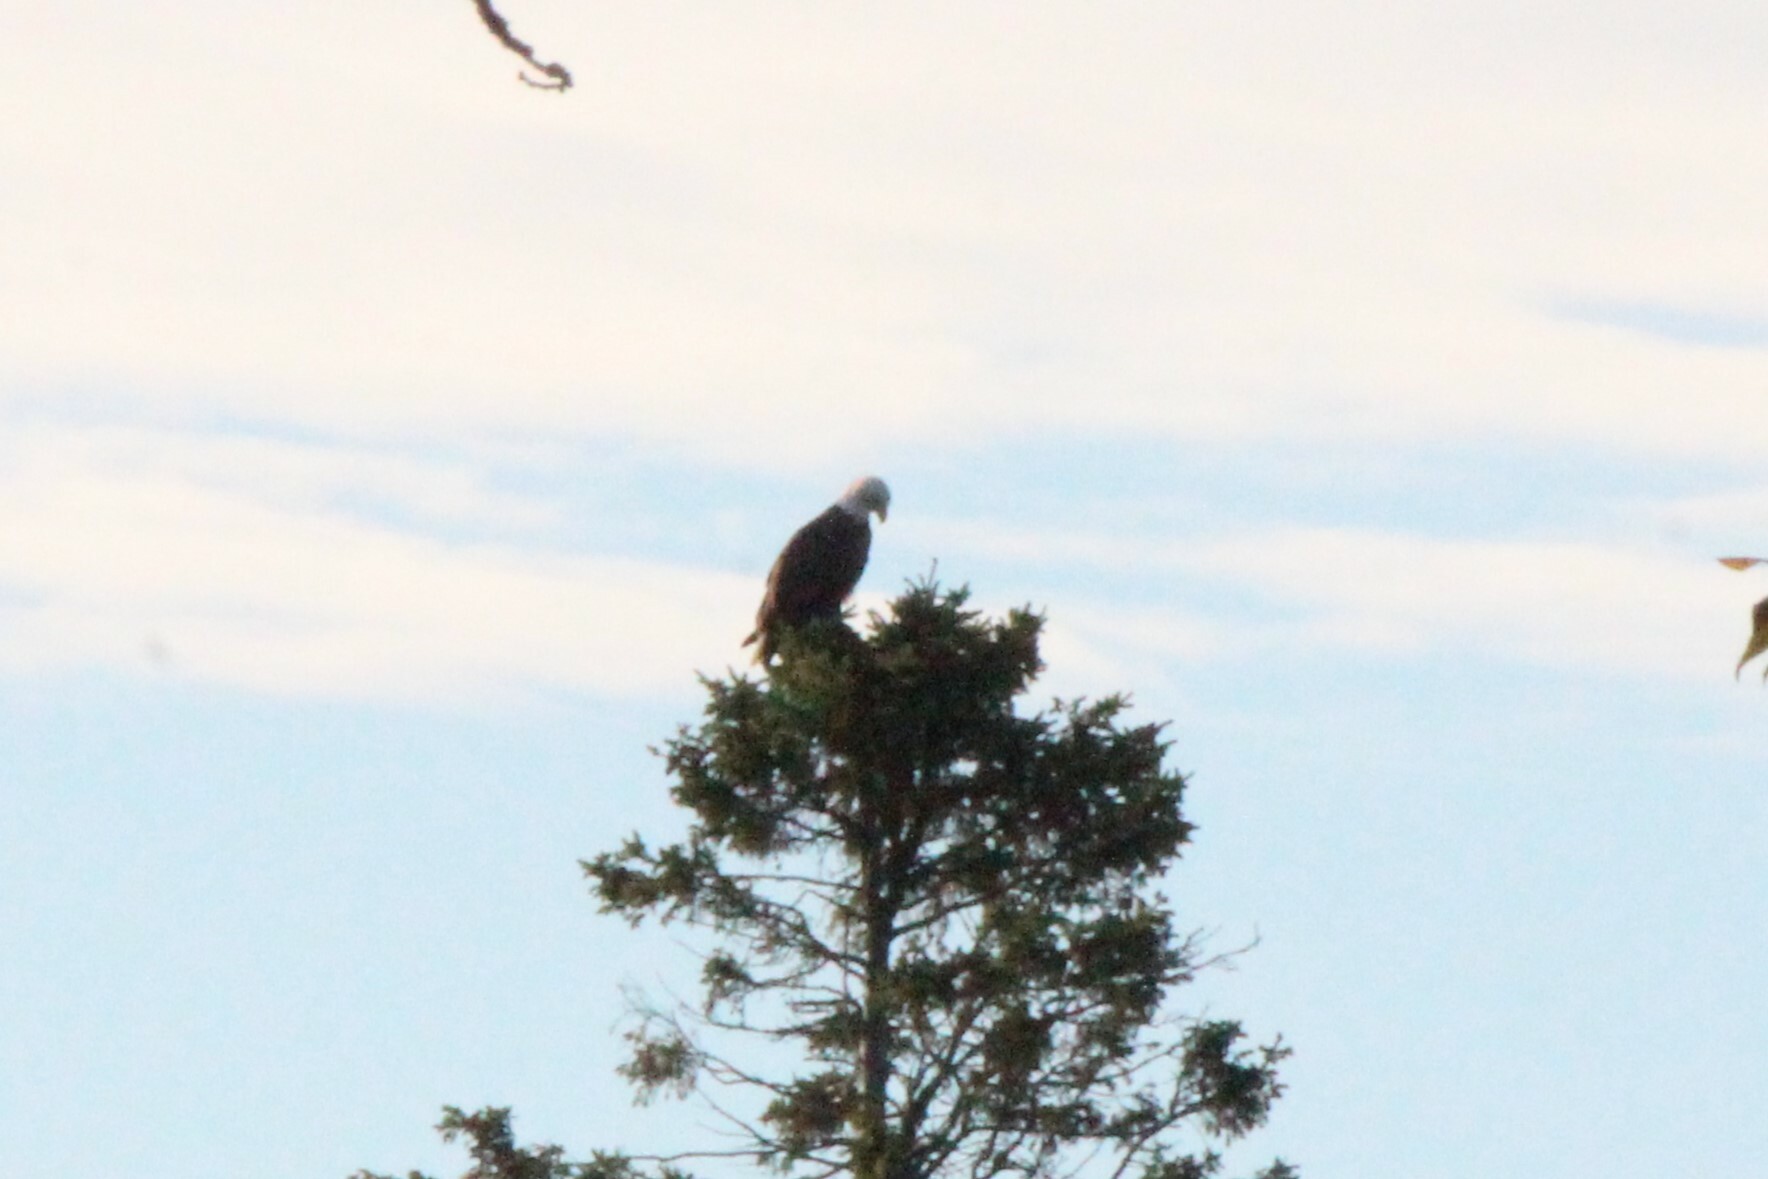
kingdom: Animalia
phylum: Chordata
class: Aves
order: Accipitriformes
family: Accipitridae
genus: Haliaeetus
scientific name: Haliaeetus leucocephalus
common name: Bald eagle
